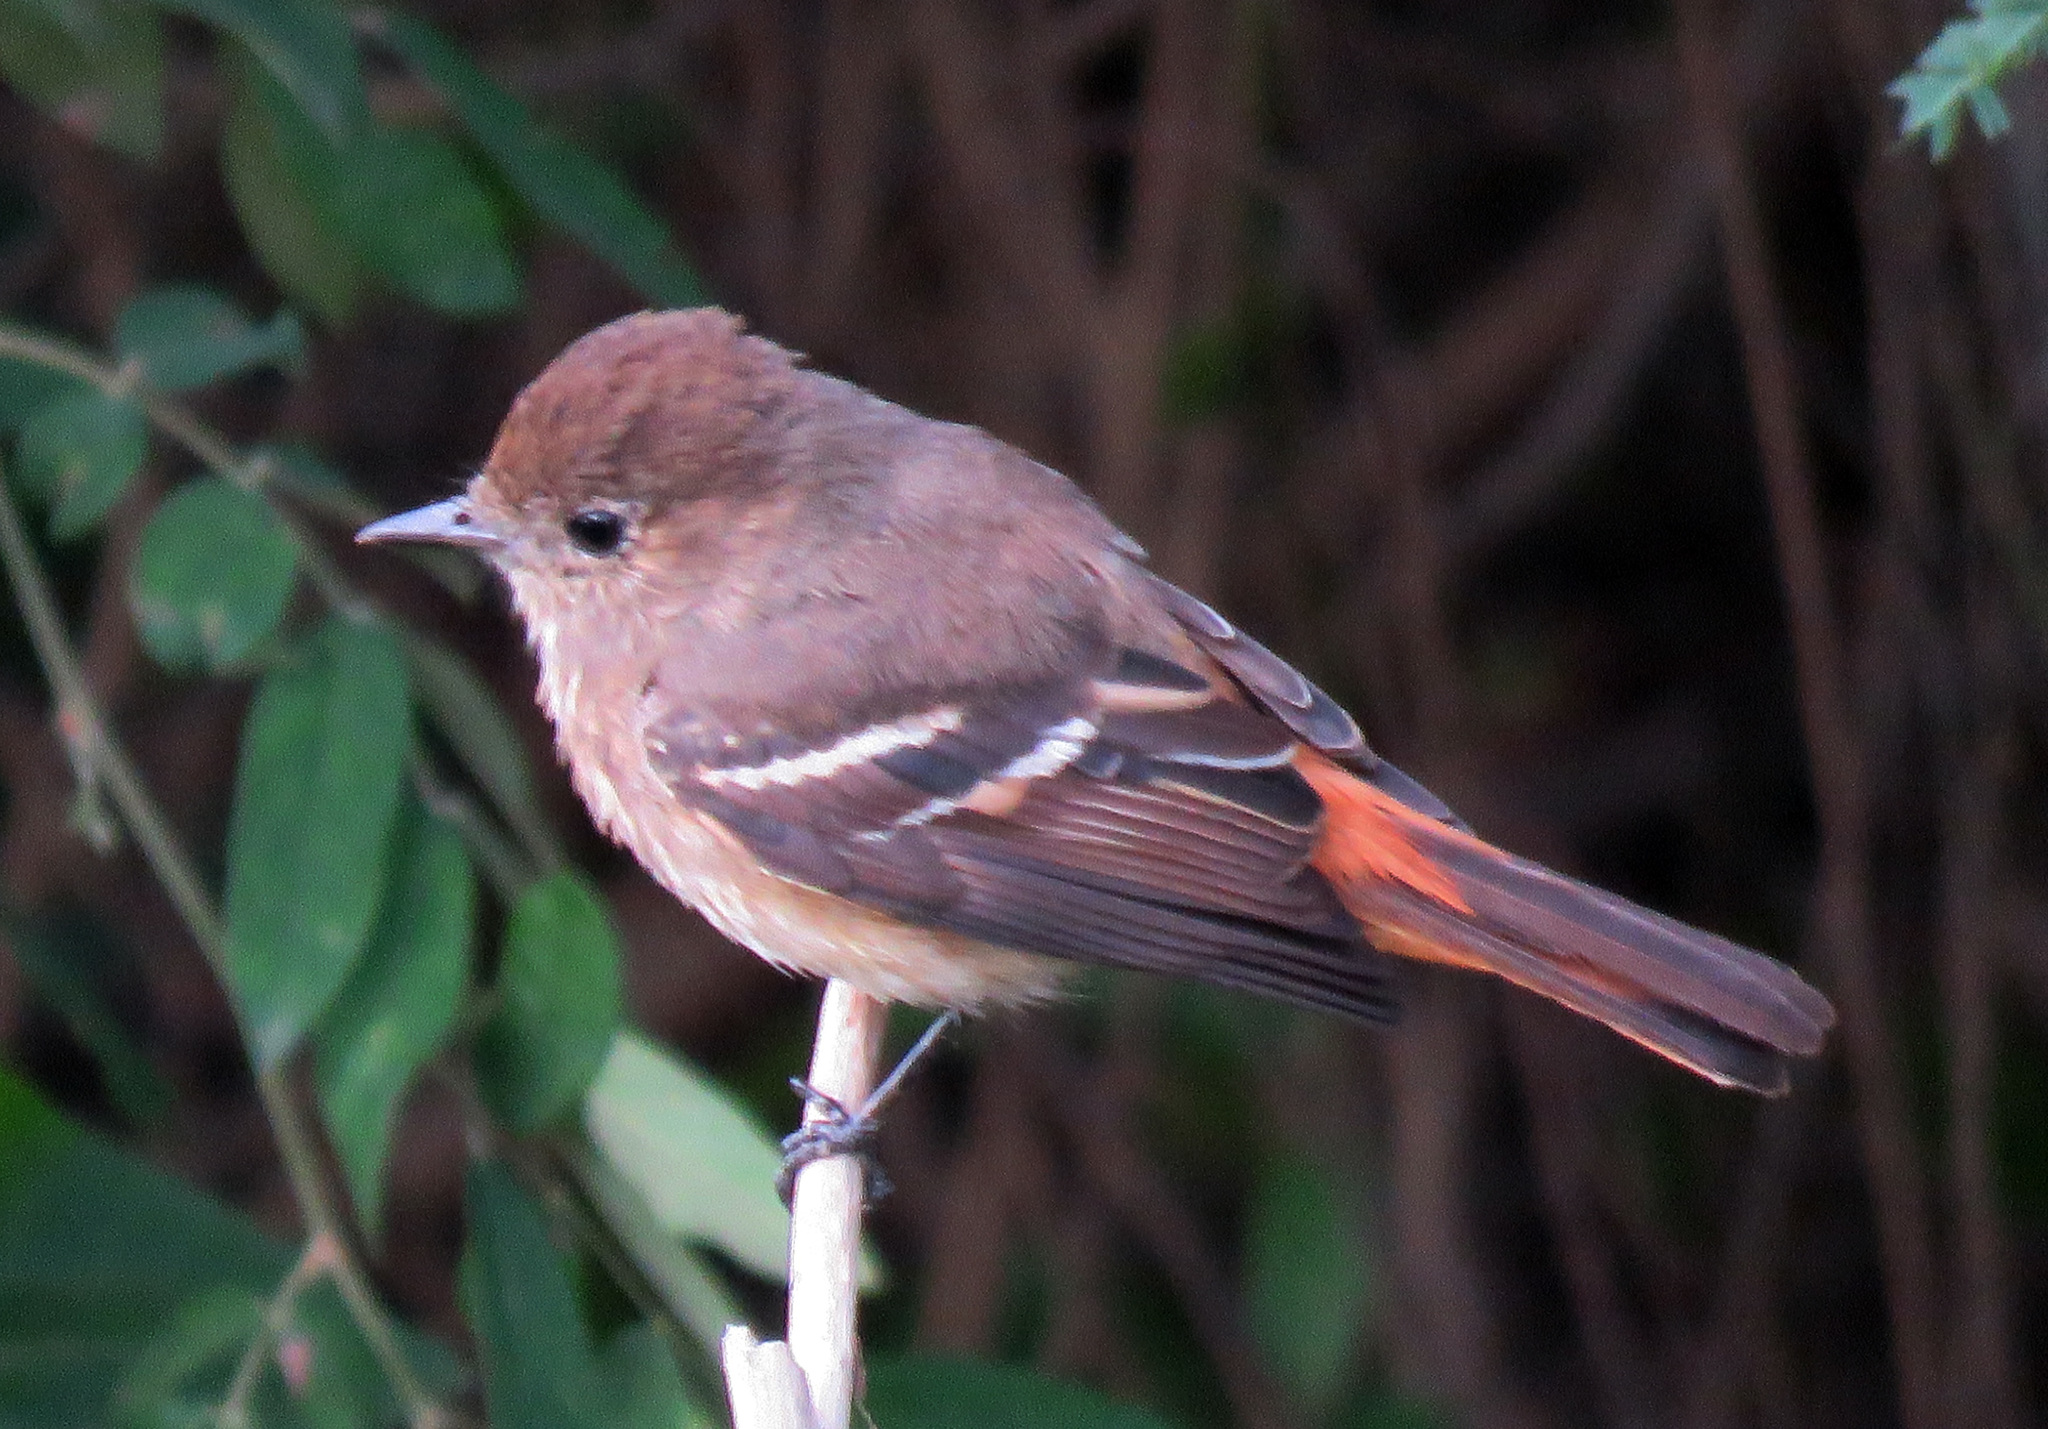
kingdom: Animalia
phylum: Chordata
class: Aves
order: Passeriformes
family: Tyrannidae
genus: Knipolegus
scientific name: Knipolegus hudsoni
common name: Hudson's black tyrant
